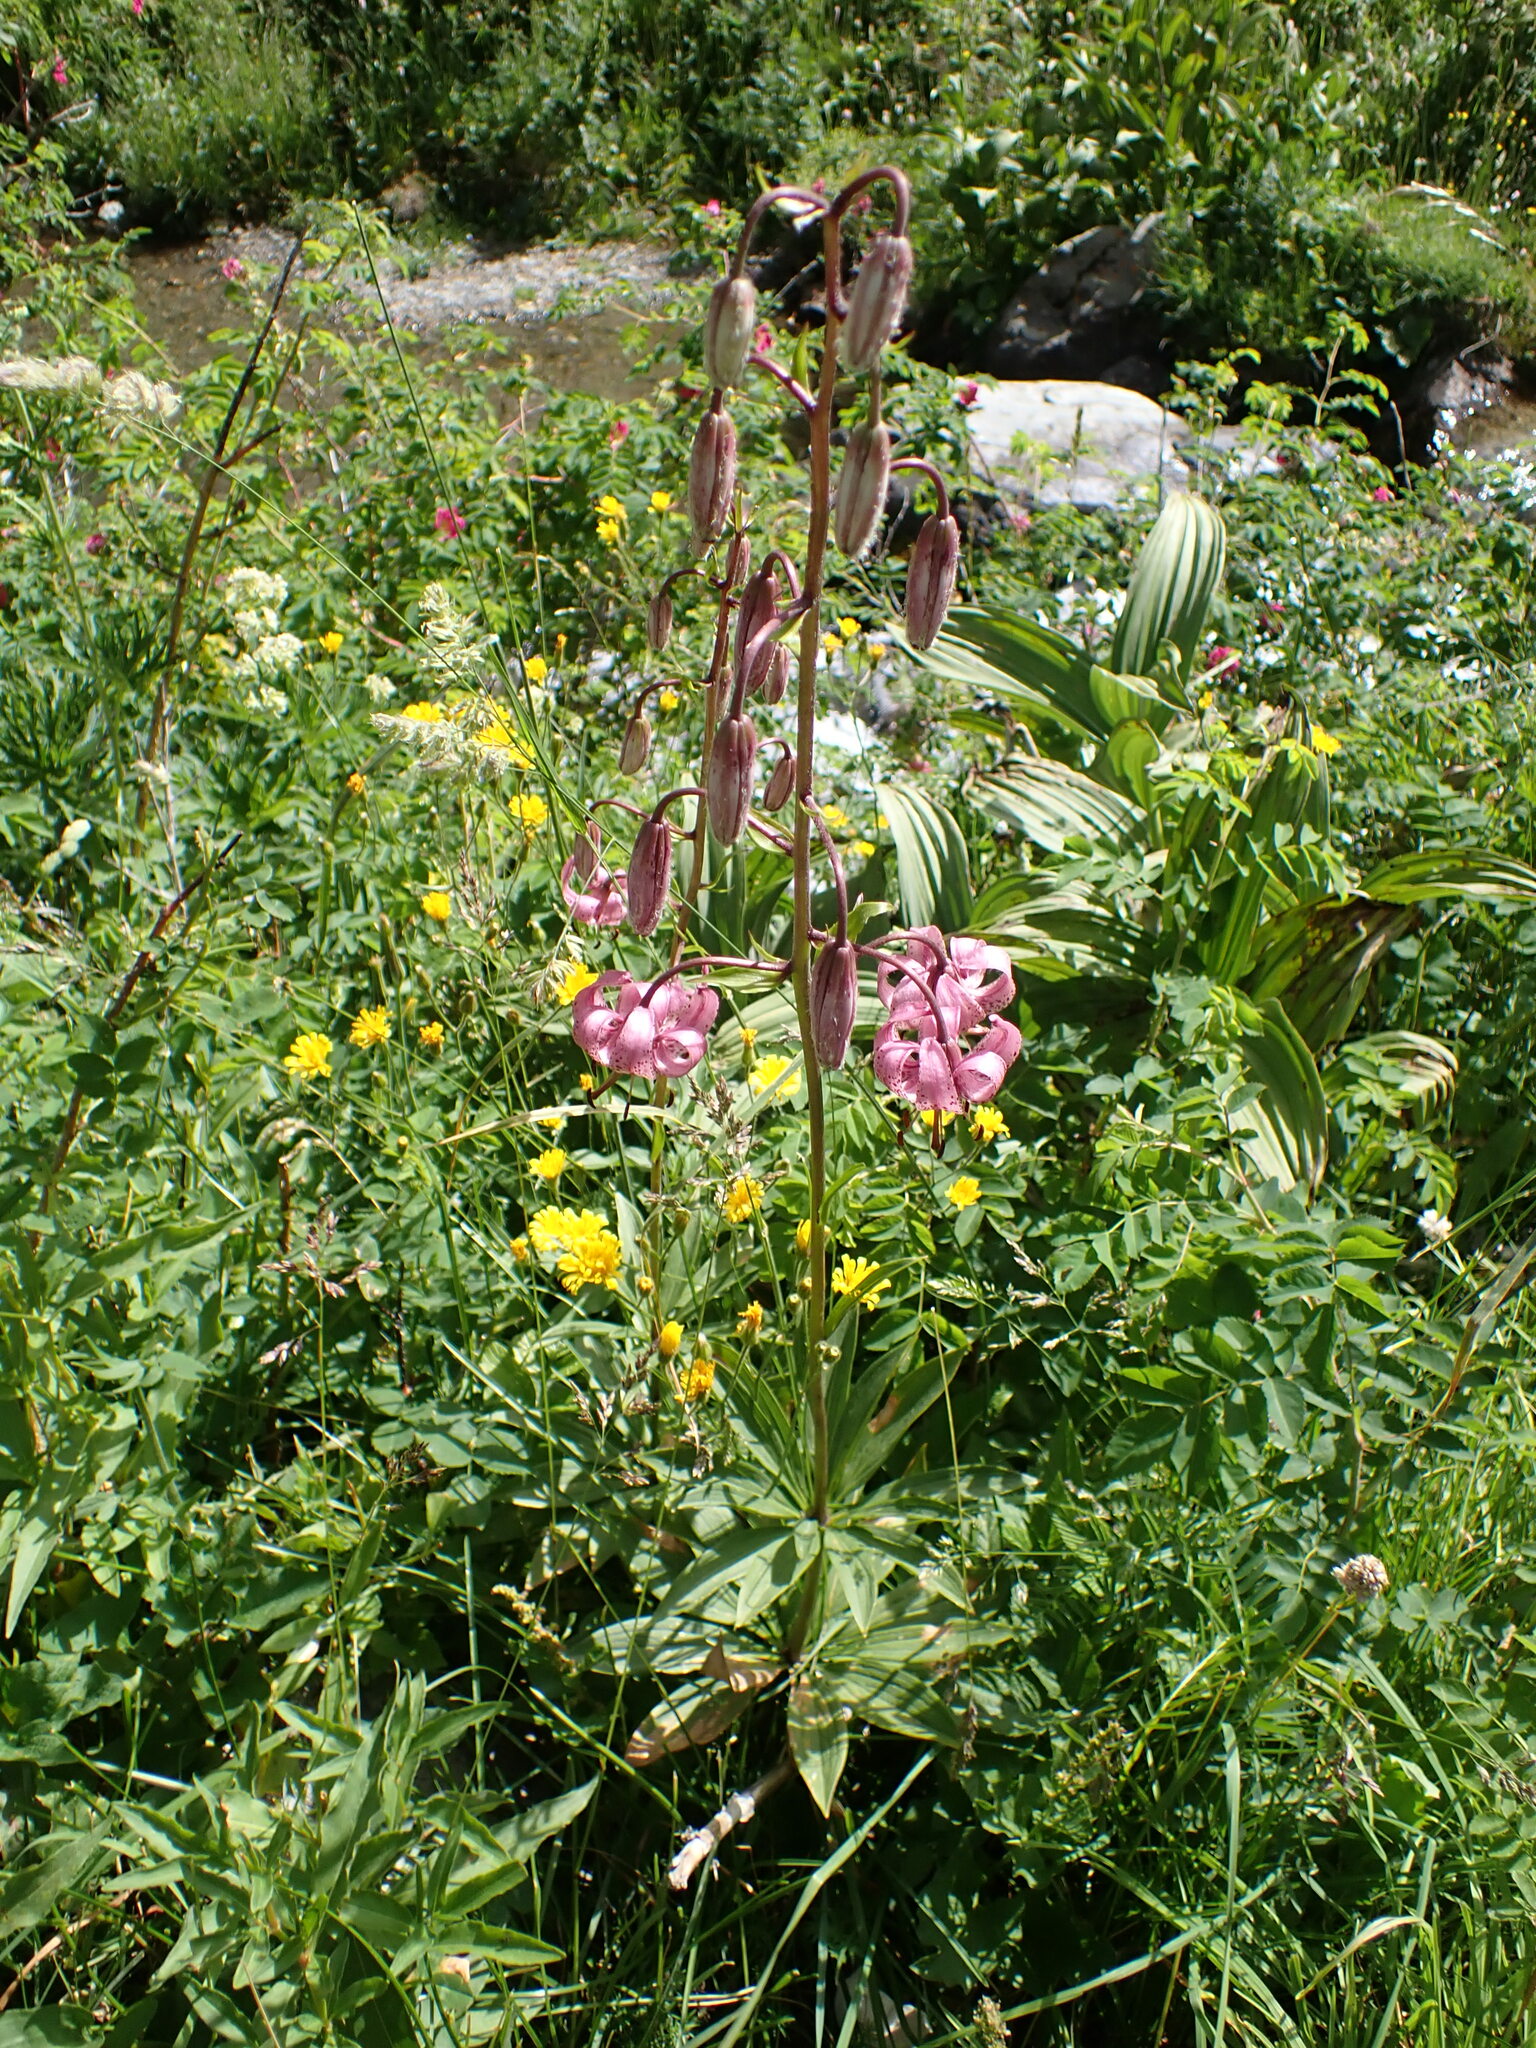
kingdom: Plantae
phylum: Tracheophyta
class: Liliopsida
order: Liliales
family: Liliaceae
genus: Lilium
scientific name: Lilium martagon
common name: Martagon lily
